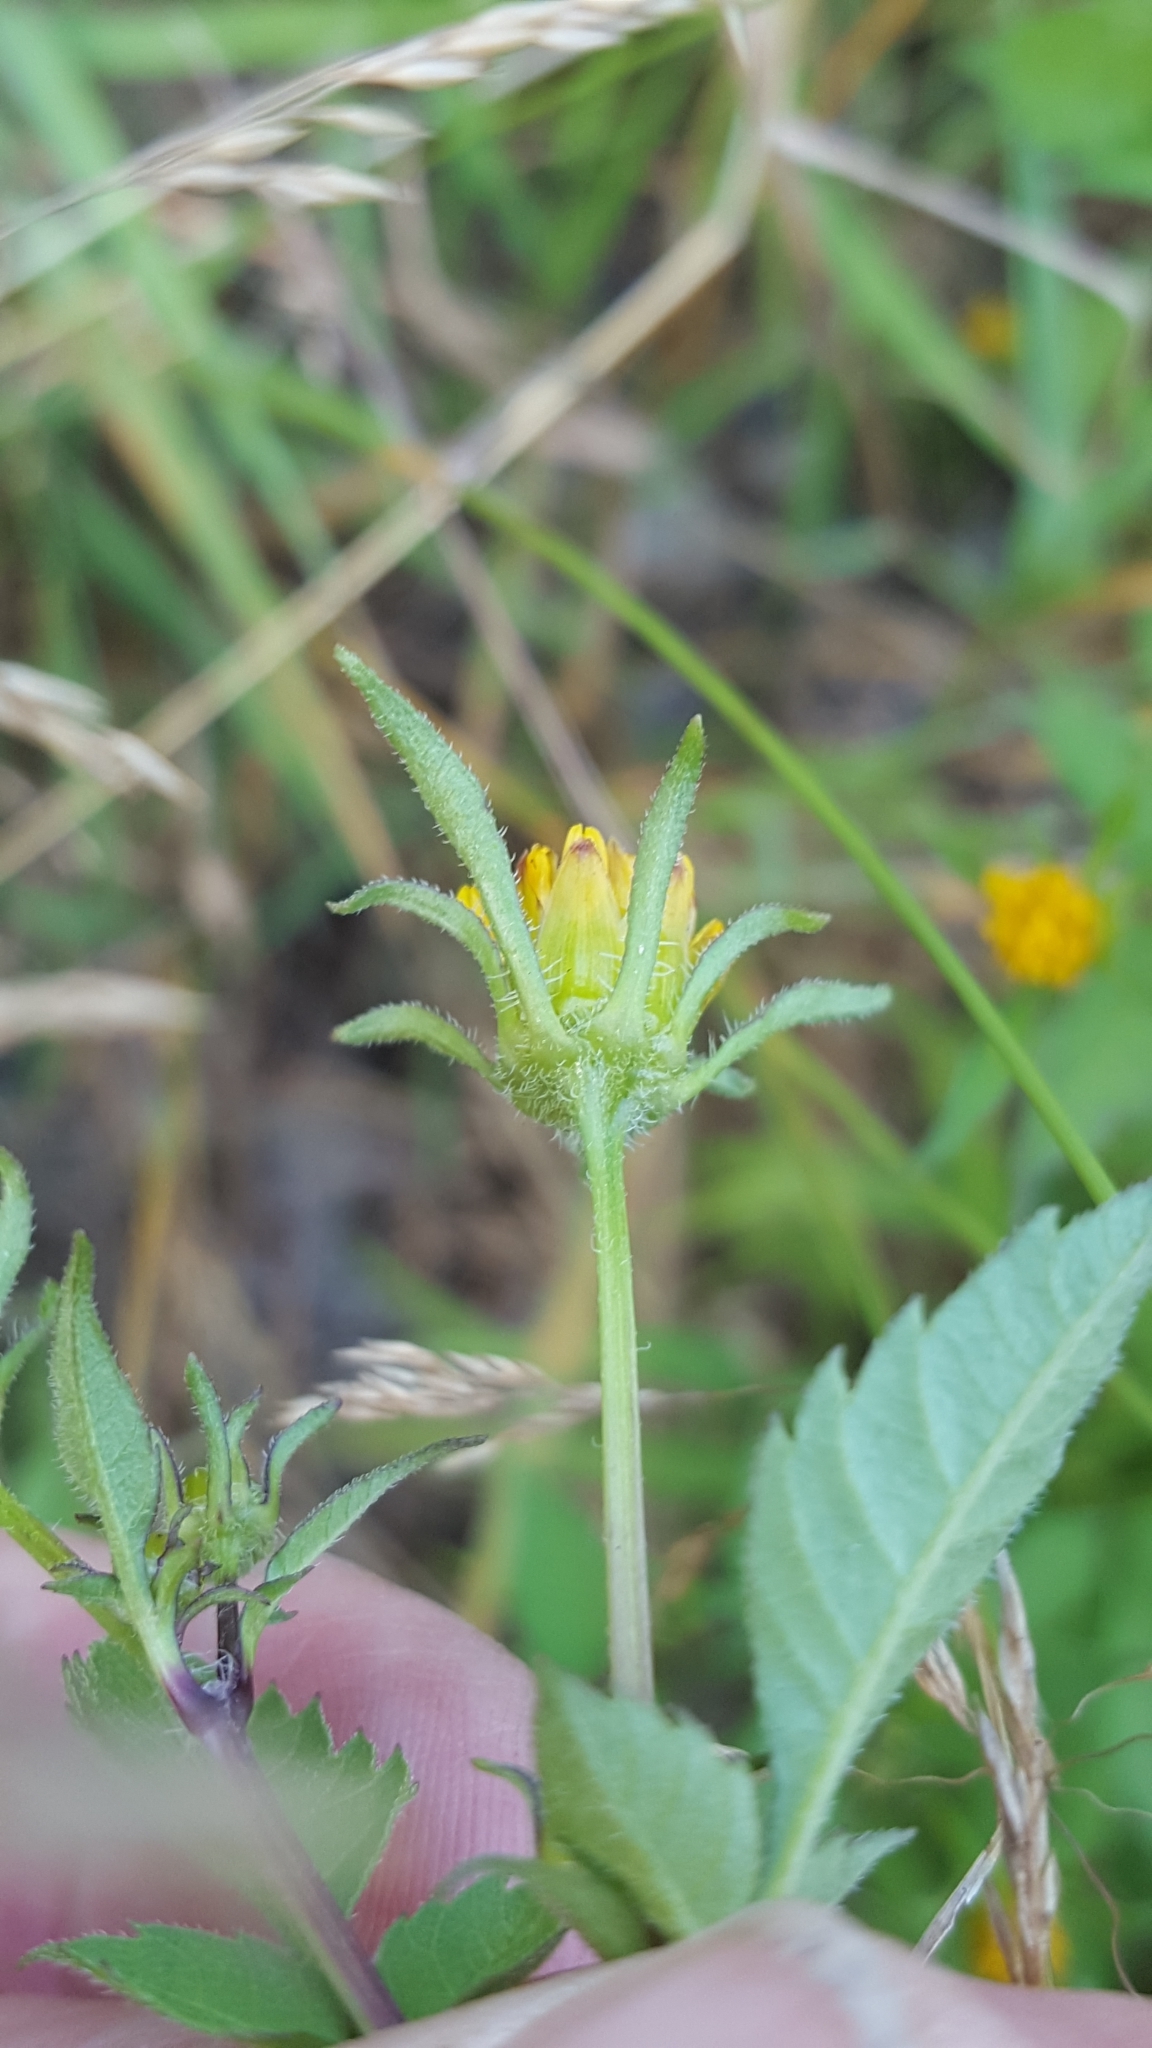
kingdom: Plantae
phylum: Tracheophyta
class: Magnoliopsida
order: Asterales
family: Asteraceae
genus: Bidens
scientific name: Bidens frondosa
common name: Beggarticks
